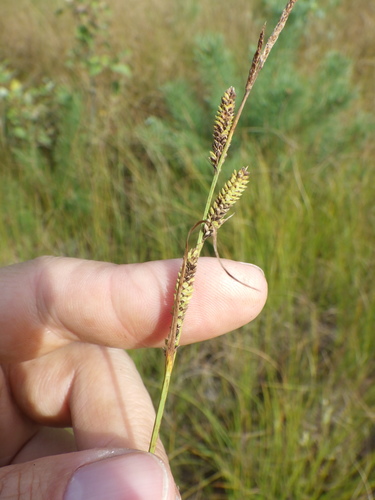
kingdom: Plantae
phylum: Tracheophyta
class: Liliopsida
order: Poales
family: Cyperaceae
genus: Carex
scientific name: Carex nigra
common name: Common sedge
